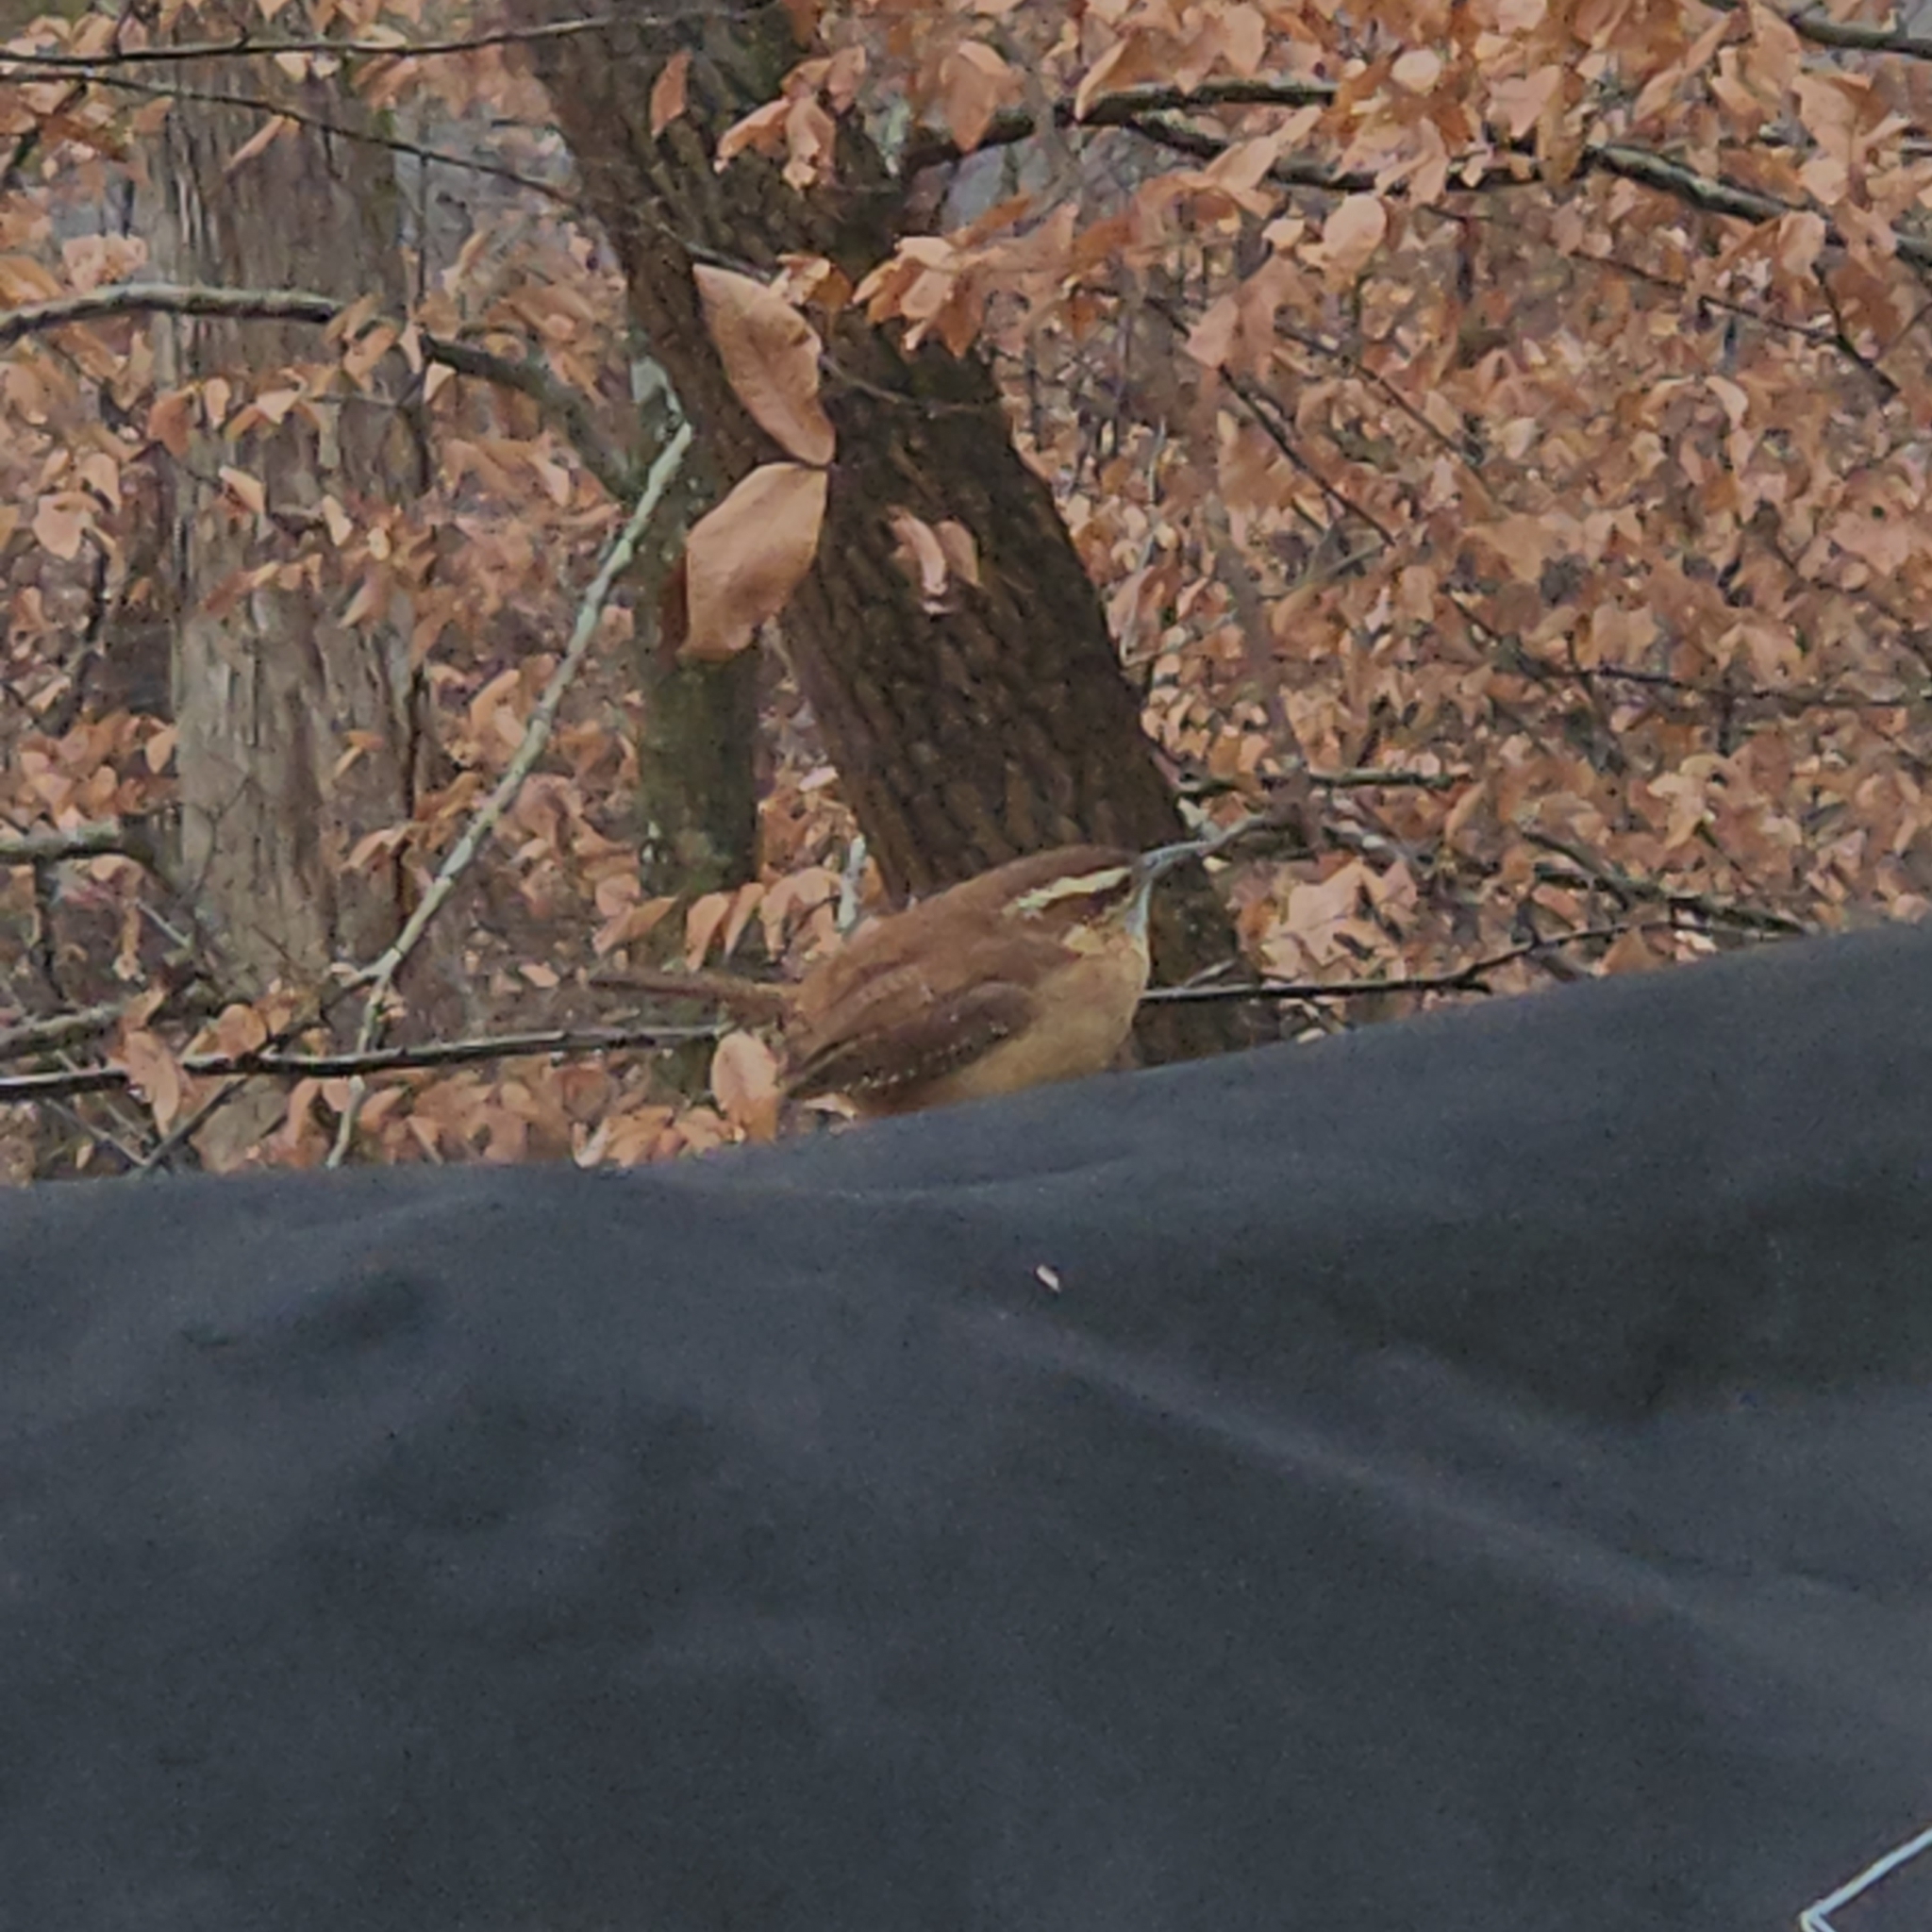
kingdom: Animalia
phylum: Chordata
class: Aves
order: Passeriformes
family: Troglodytidae
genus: Thryothorus
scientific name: Thryothorus ludovicianus
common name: Carolina wren
